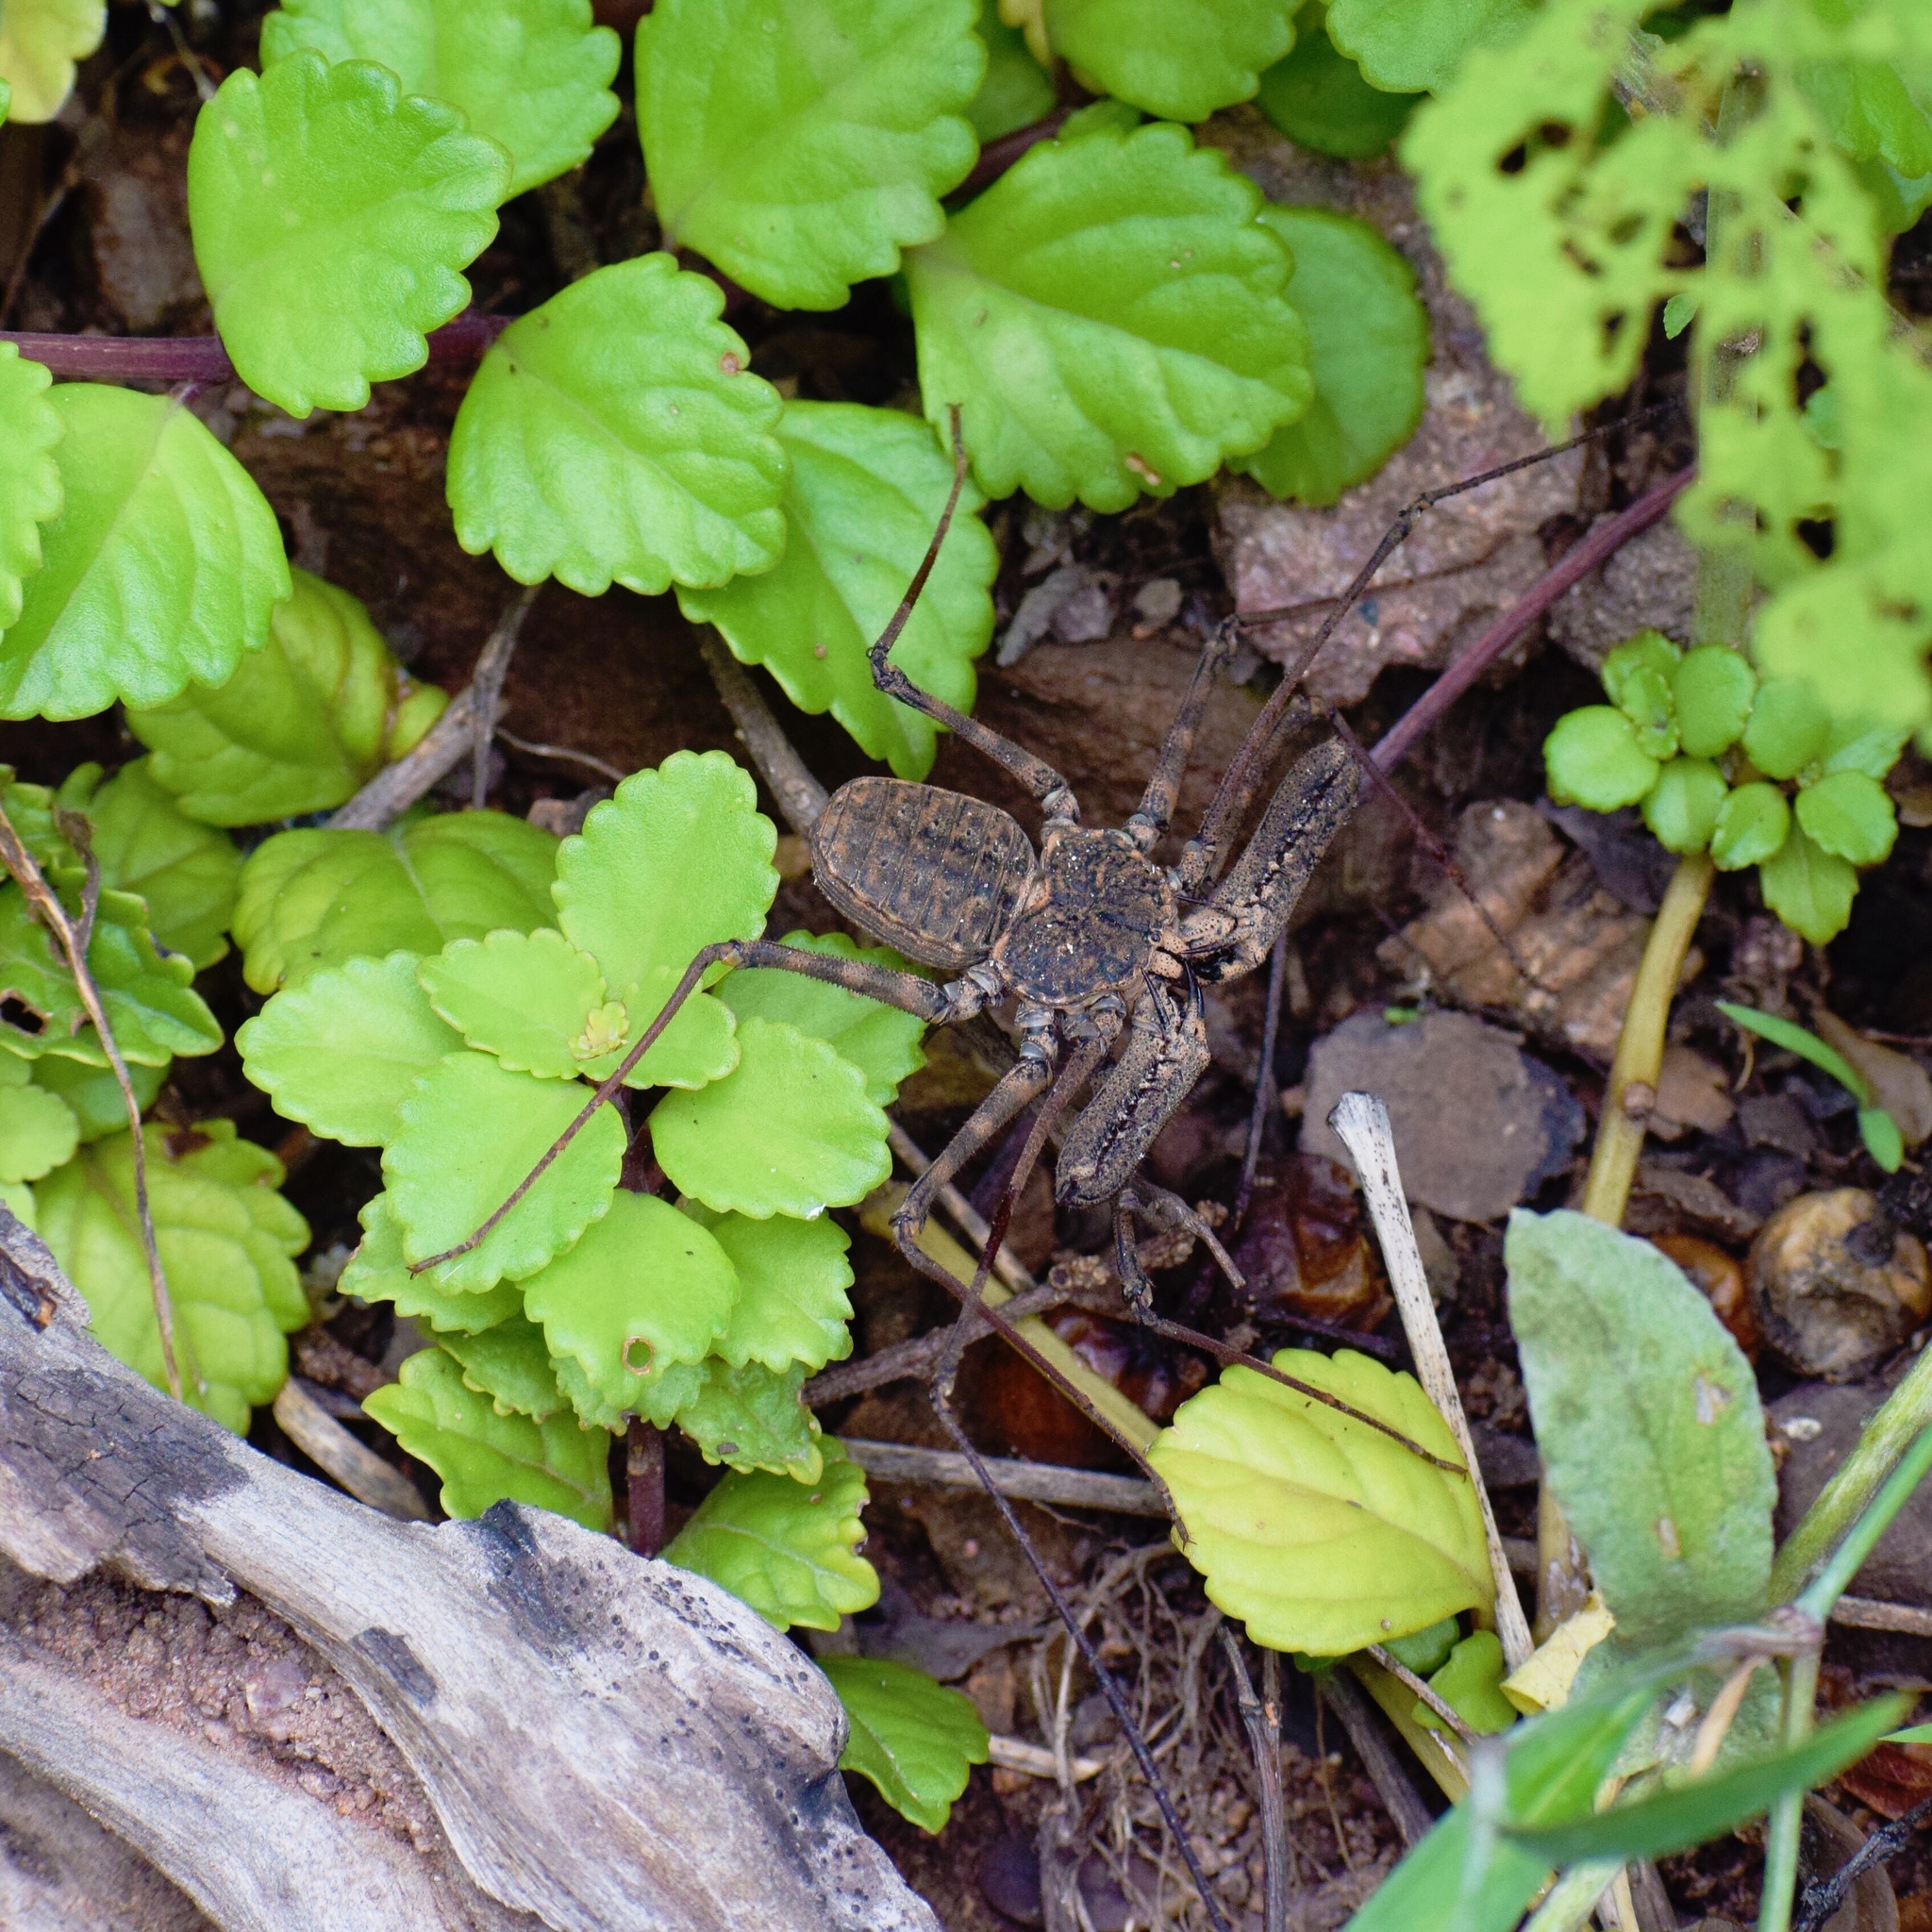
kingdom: Animalia
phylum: Arthropoda
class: Arachnida
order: Amblypygi
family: Phrynichidae
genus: Damon
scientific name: Damon annulatipes
